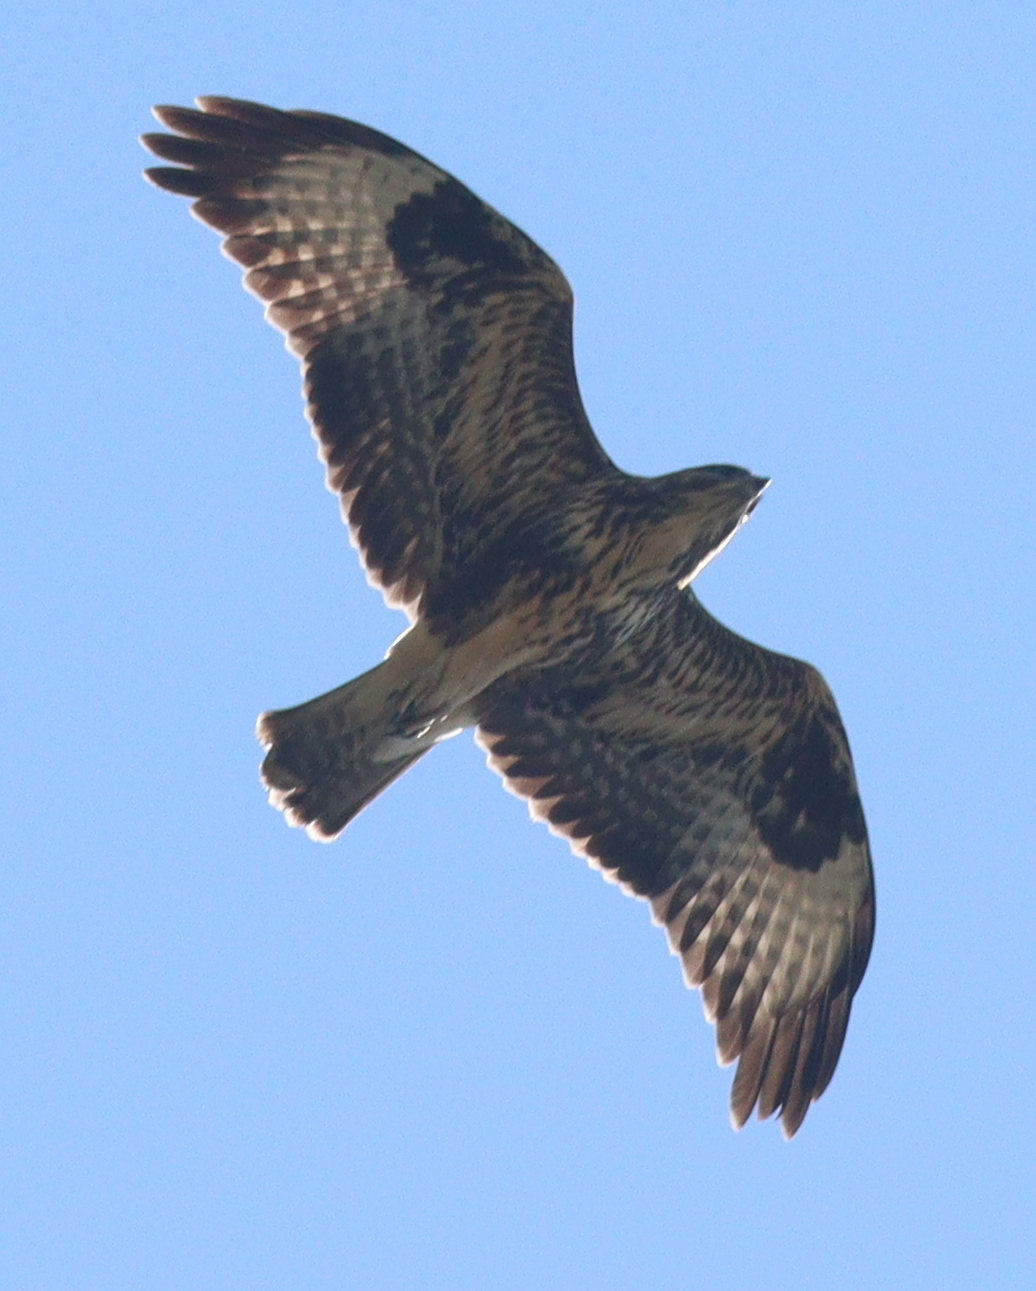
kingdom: Animalia
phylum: Chordata
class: Aves
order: Accipitriformes
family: Accipitridae
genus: Buteo
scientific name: Buteo buteo
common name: Common buzzard
